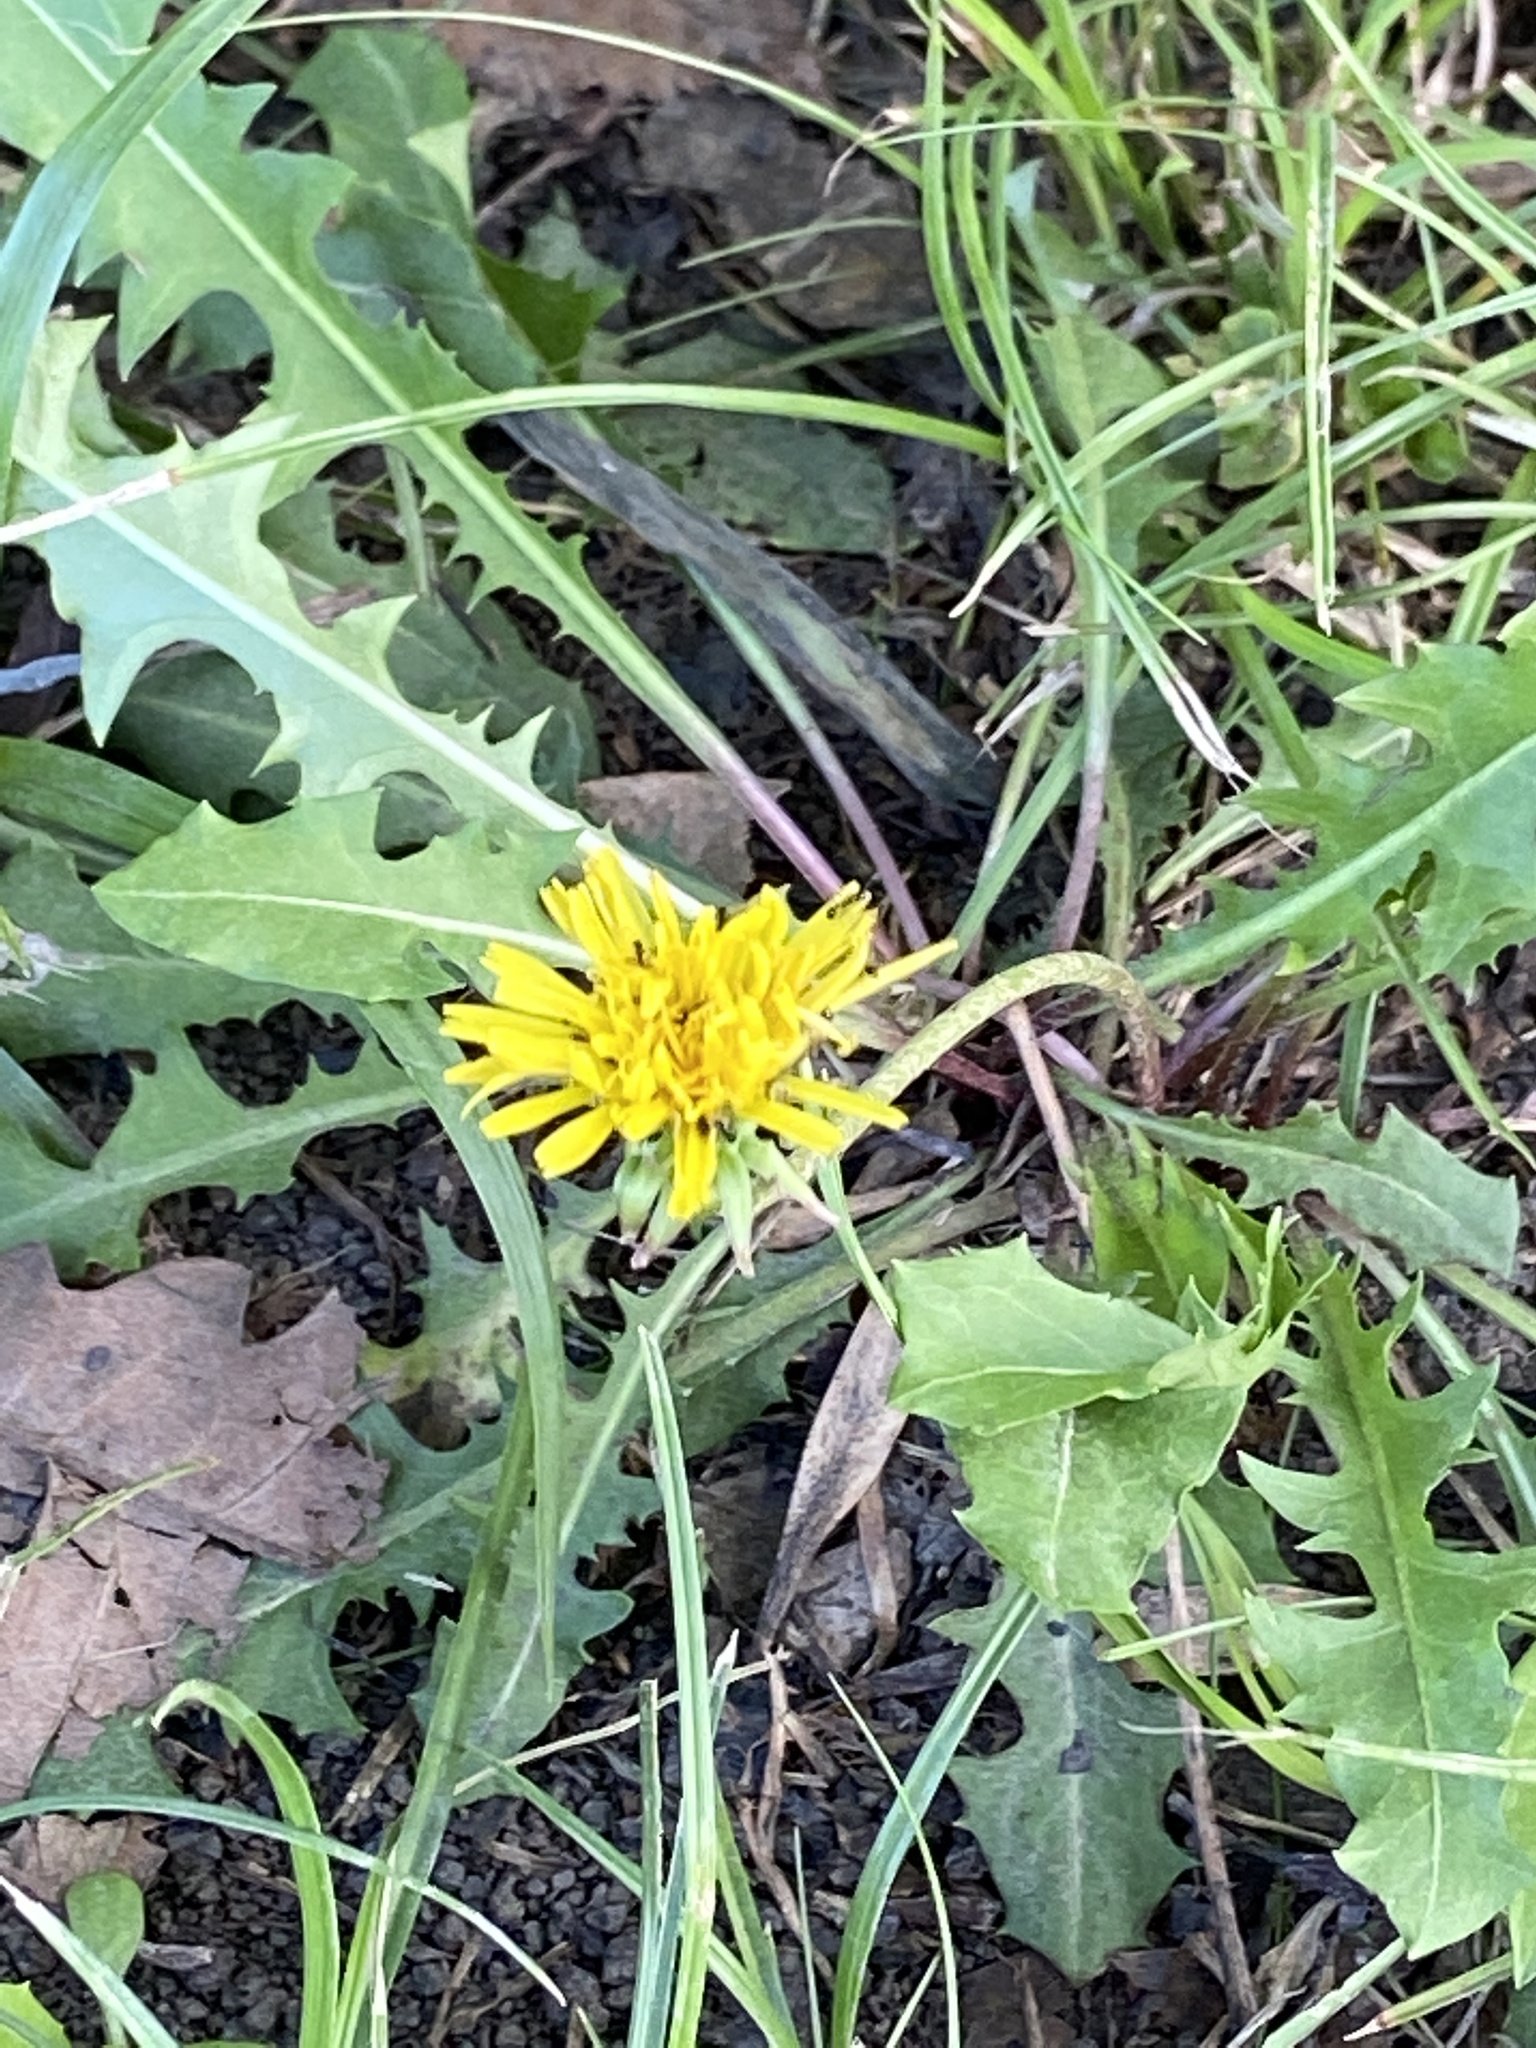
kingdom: Plantae
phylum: Tracheophyta
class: Magnoliopsida
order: Asterales
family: Asteraceae
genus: Taraxacum
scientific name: Taraxacum officinale
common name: Common dandelion
